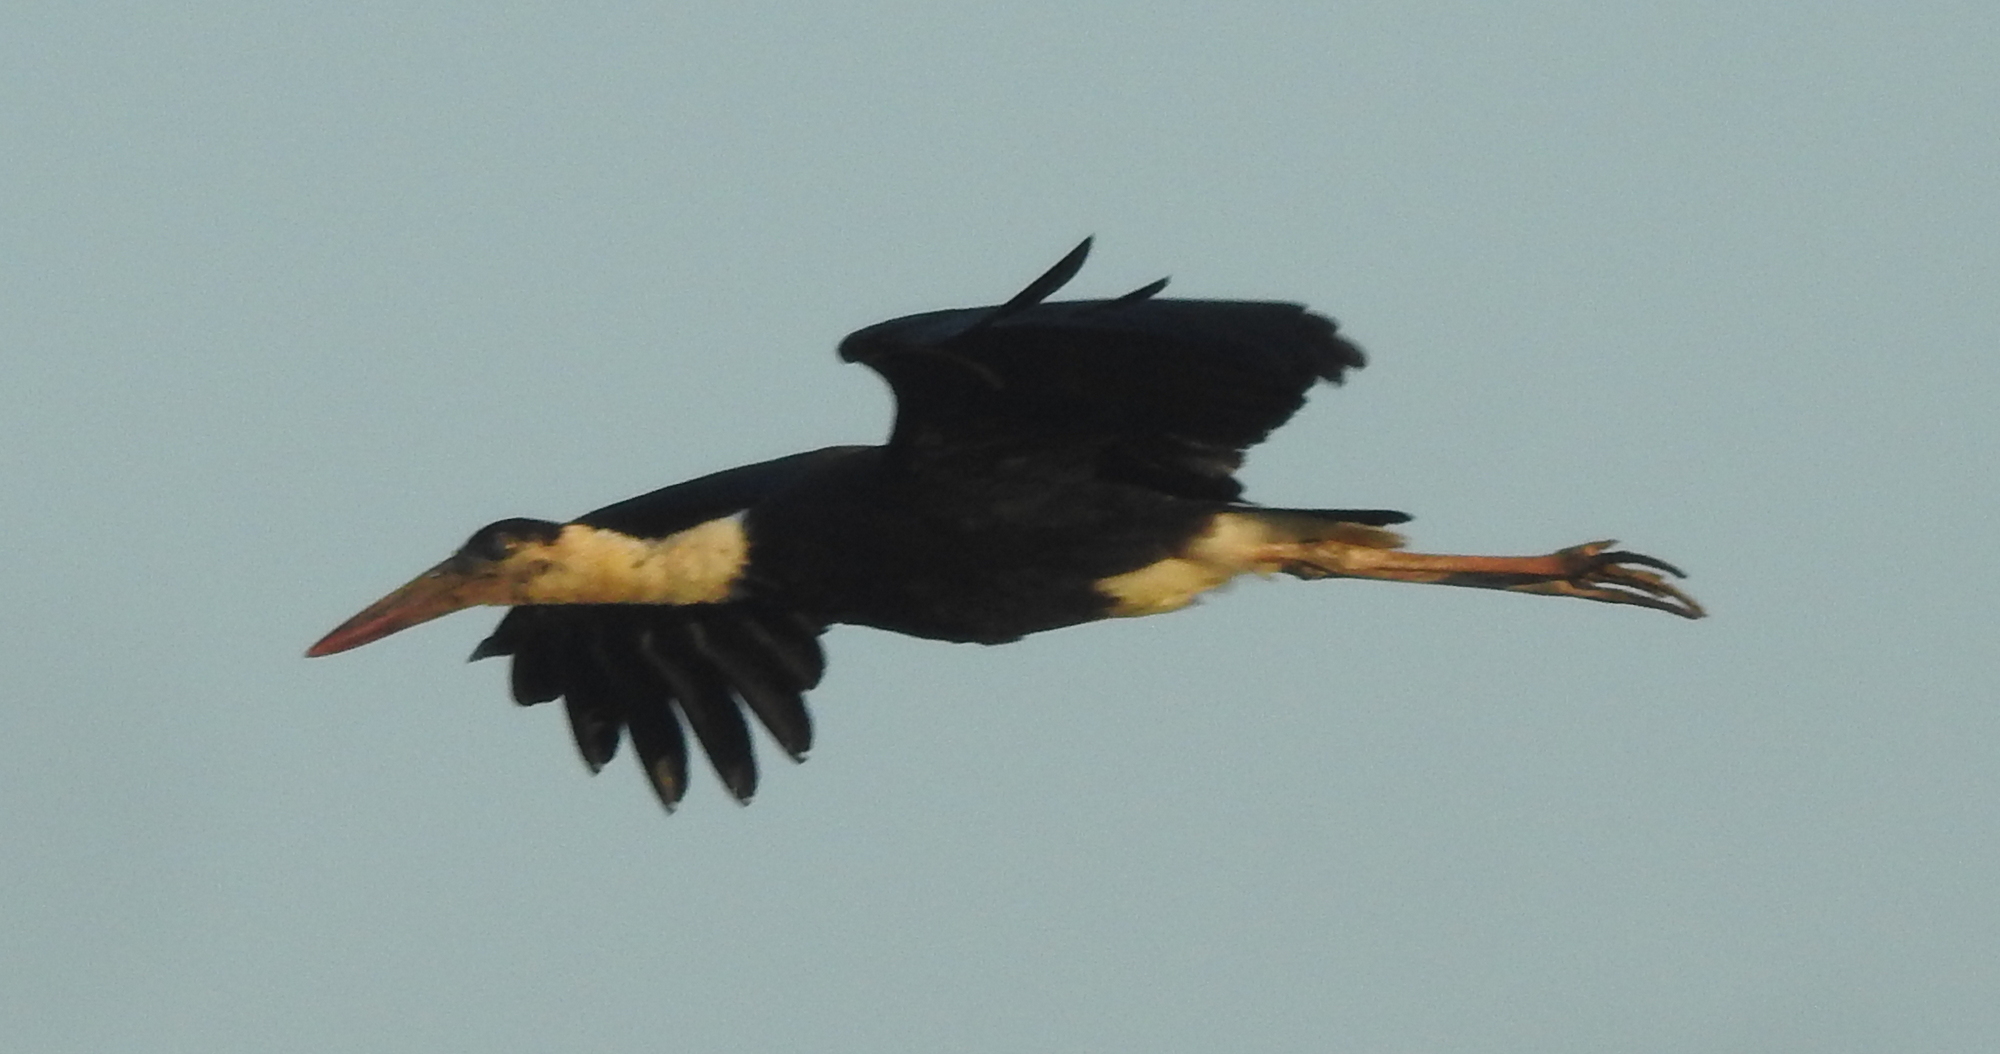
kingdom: Animalia
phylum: Chordata
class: Aves
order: Ciconiiformes
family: Ciconiidae
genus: Ciconia
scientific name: Ciconia episcopus
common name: Woolly-necked stork
